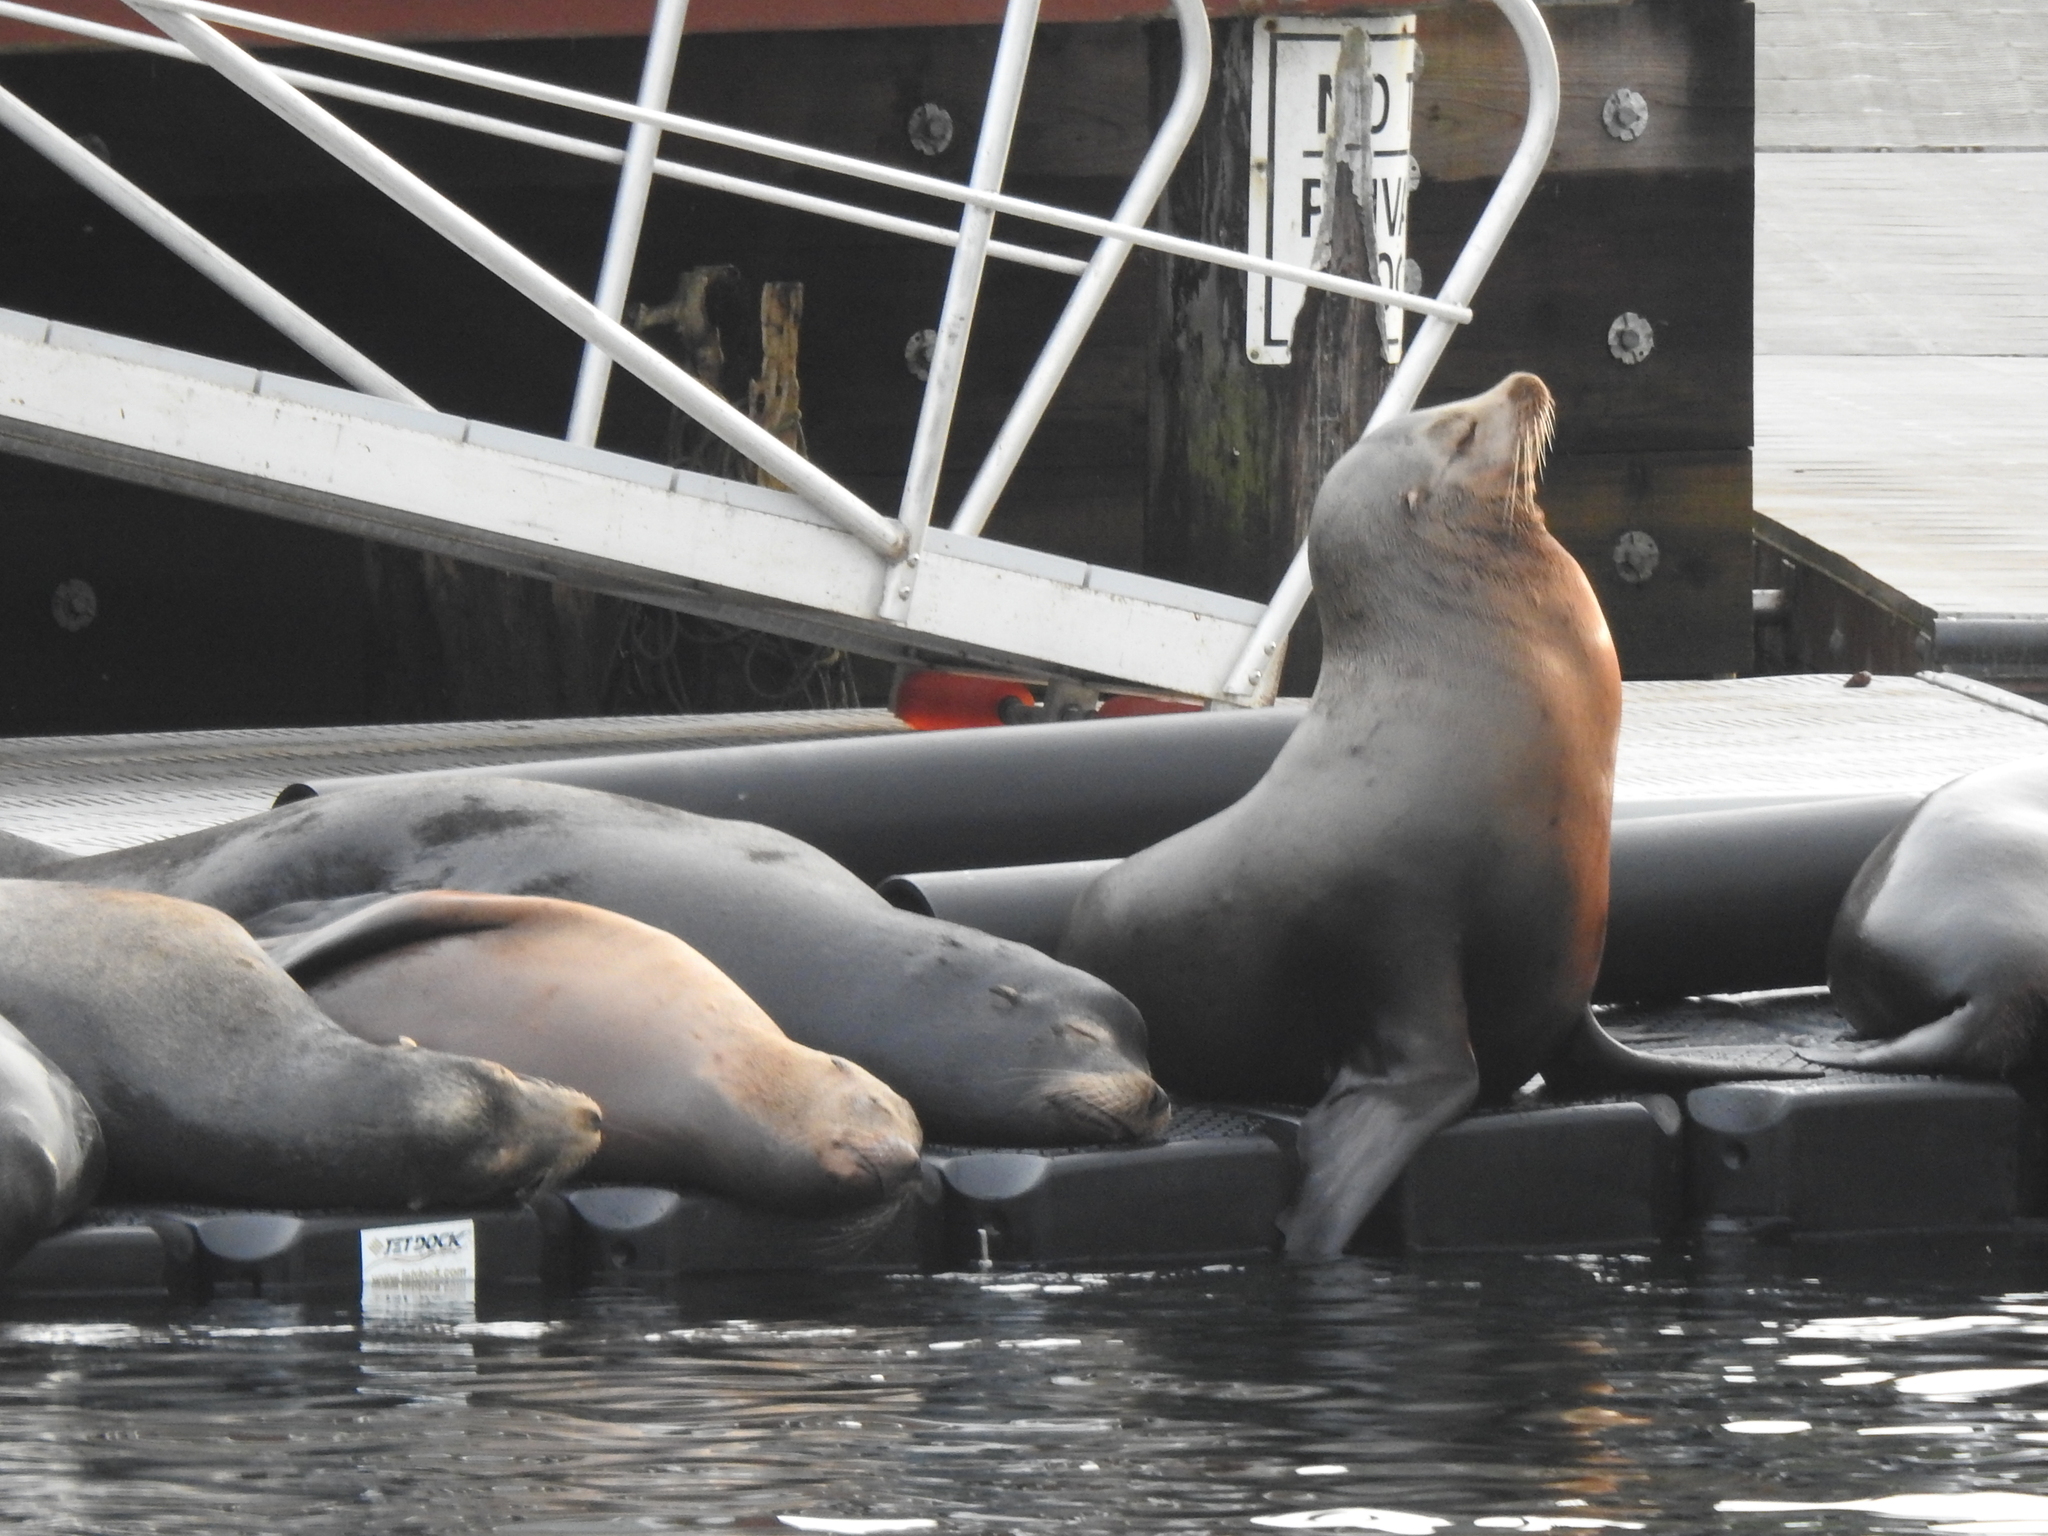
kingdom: Animalia
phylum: Chordata
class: Mammalia
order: Carnivora
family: Otariidae
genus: Zalophus
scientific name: Zalophus californianus
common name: California sea lion
